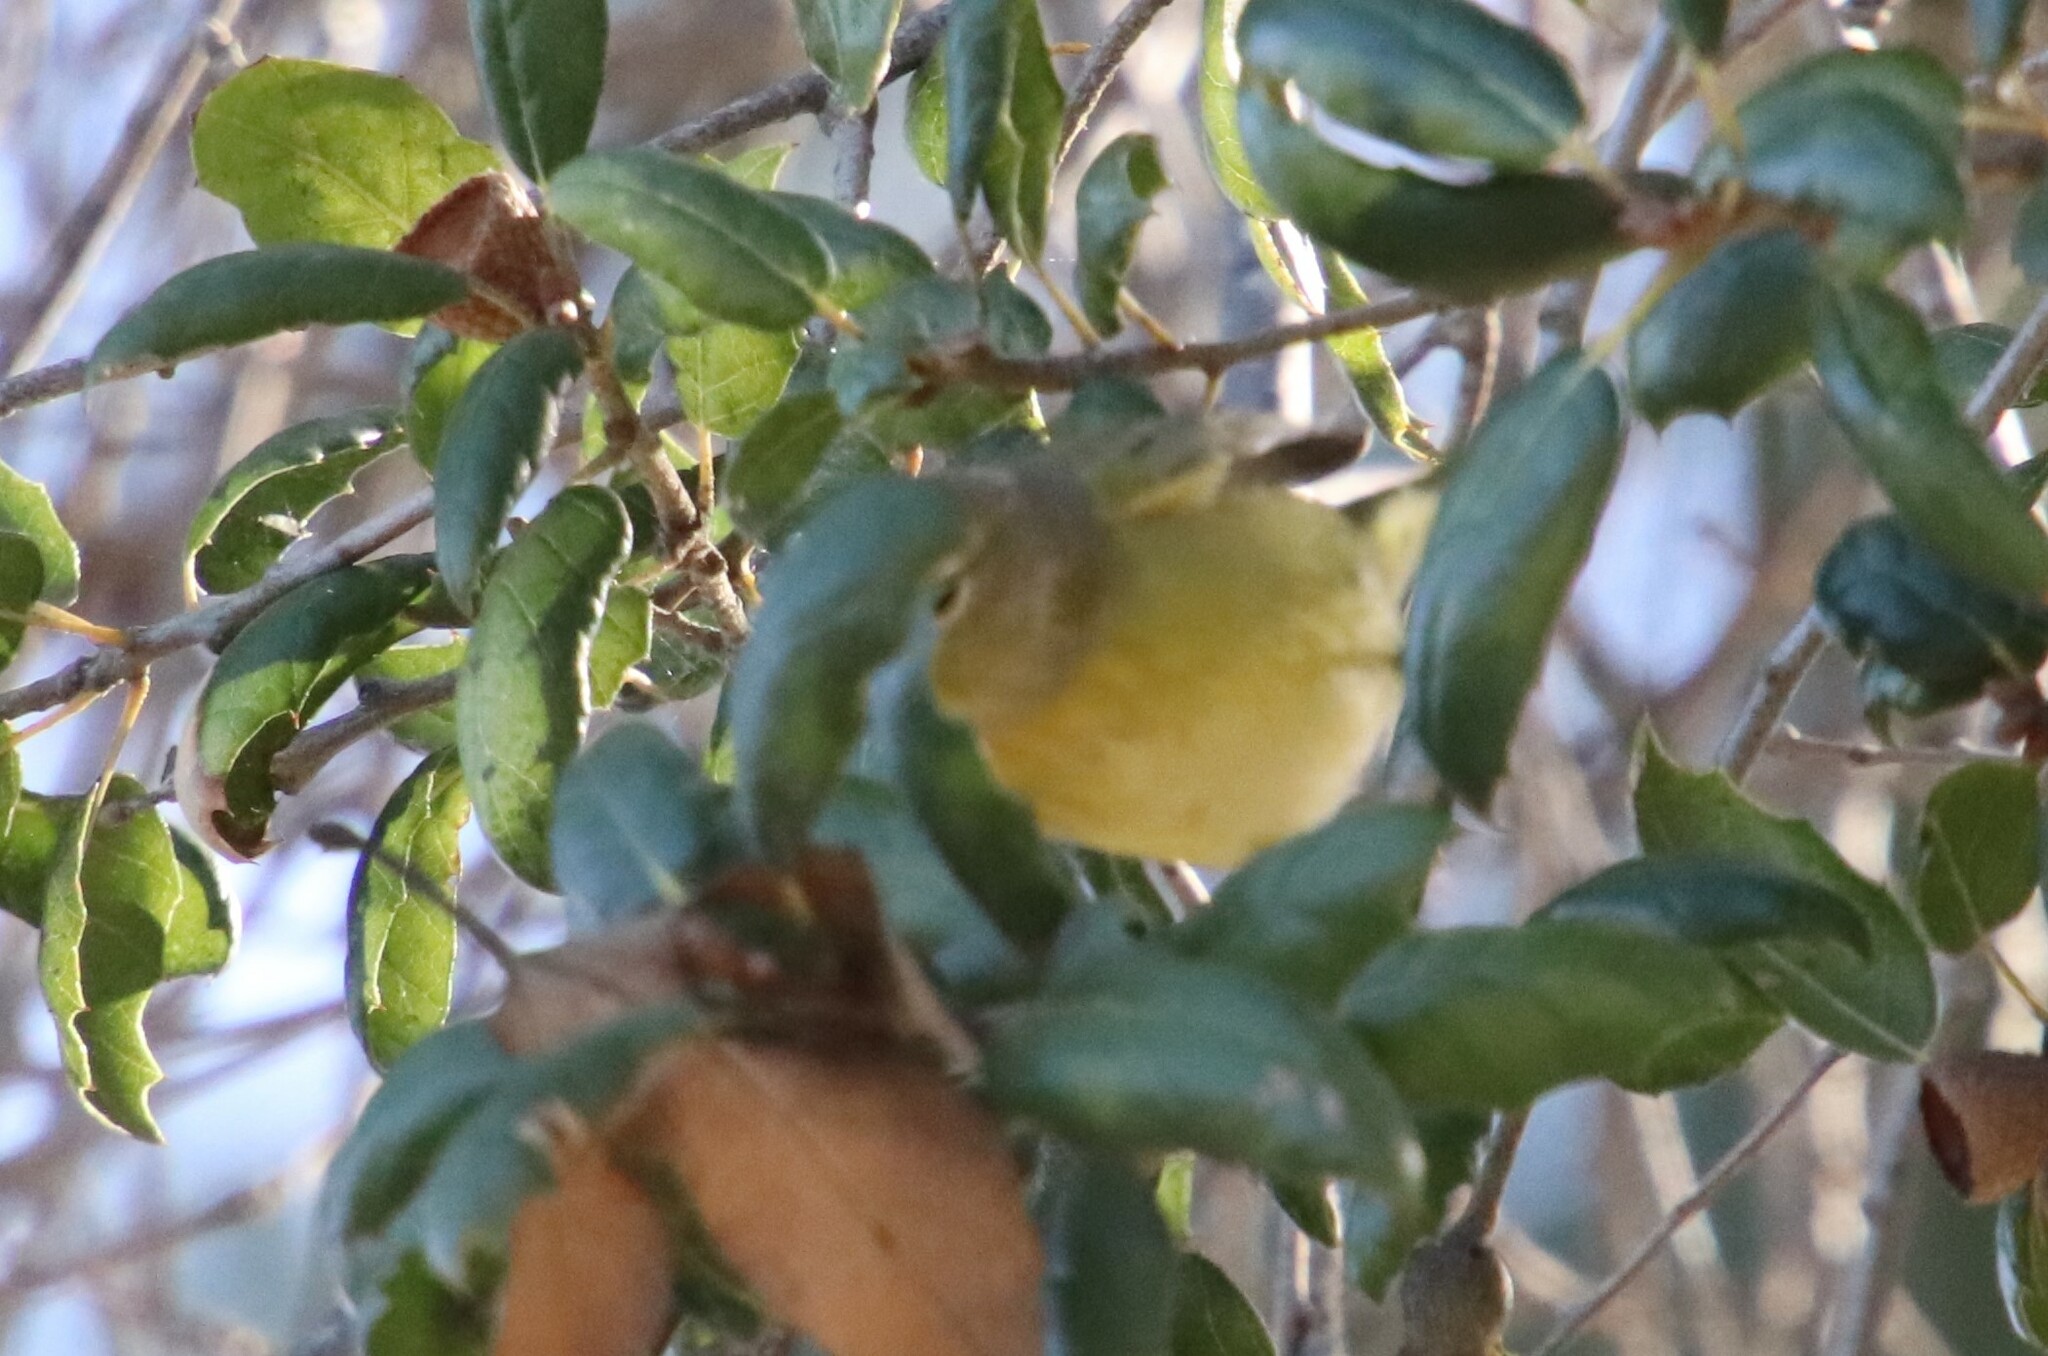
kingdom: Animalia
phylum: Chordata
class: Aves
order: Passeriformes
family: Parulidae
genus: Leiothlypis
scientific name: Leiothlypis celata
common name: Orange-crowned warbler
